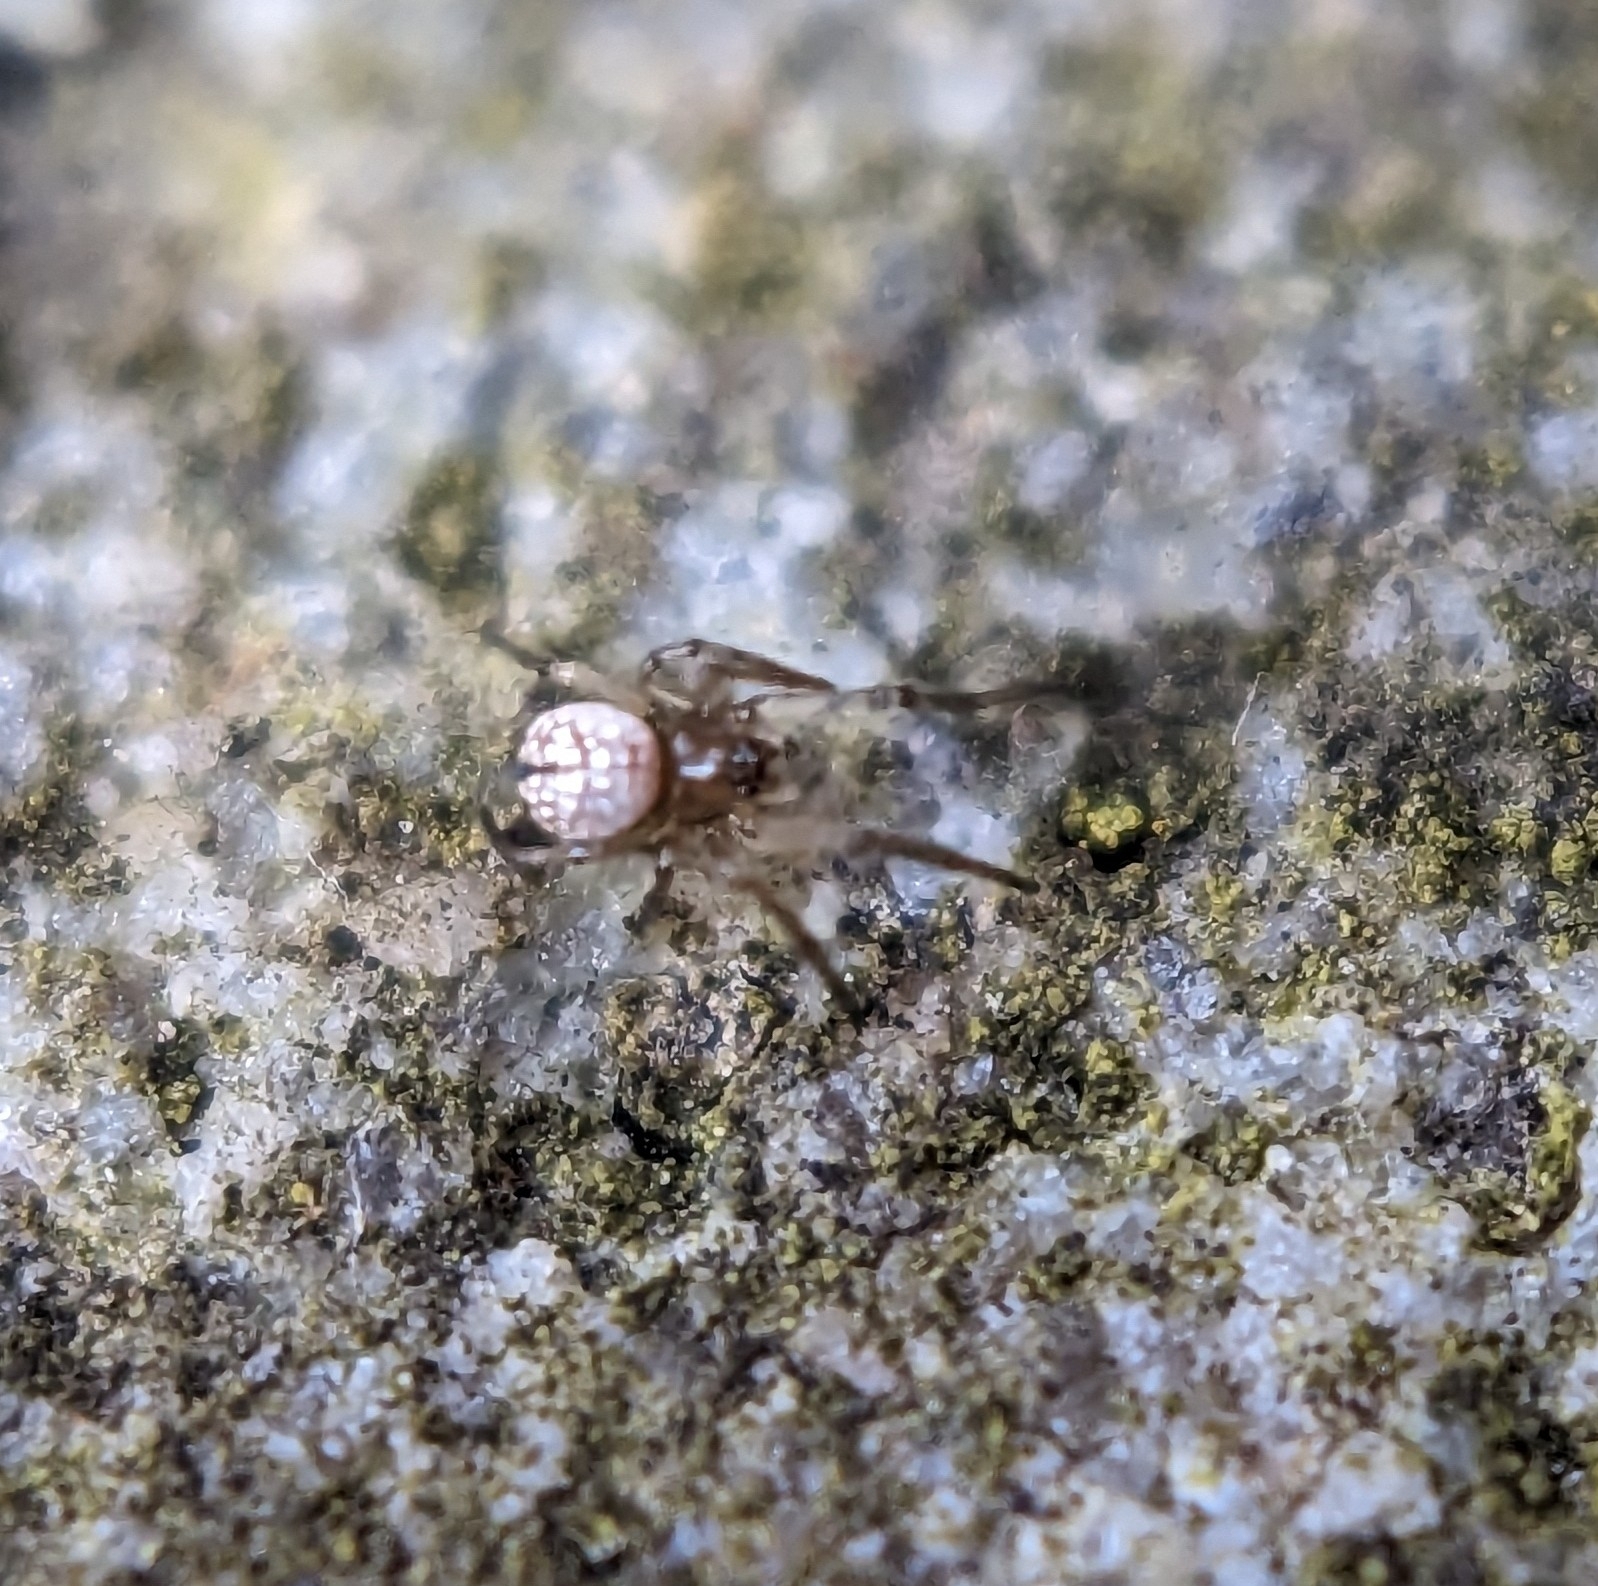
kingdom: Animalia
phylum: Arthropoda
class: Arachnida
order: Araneae
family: Tetragnathidae
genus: Leucauge
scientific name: Leucauge venusta
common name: Longjawed orb weavers
